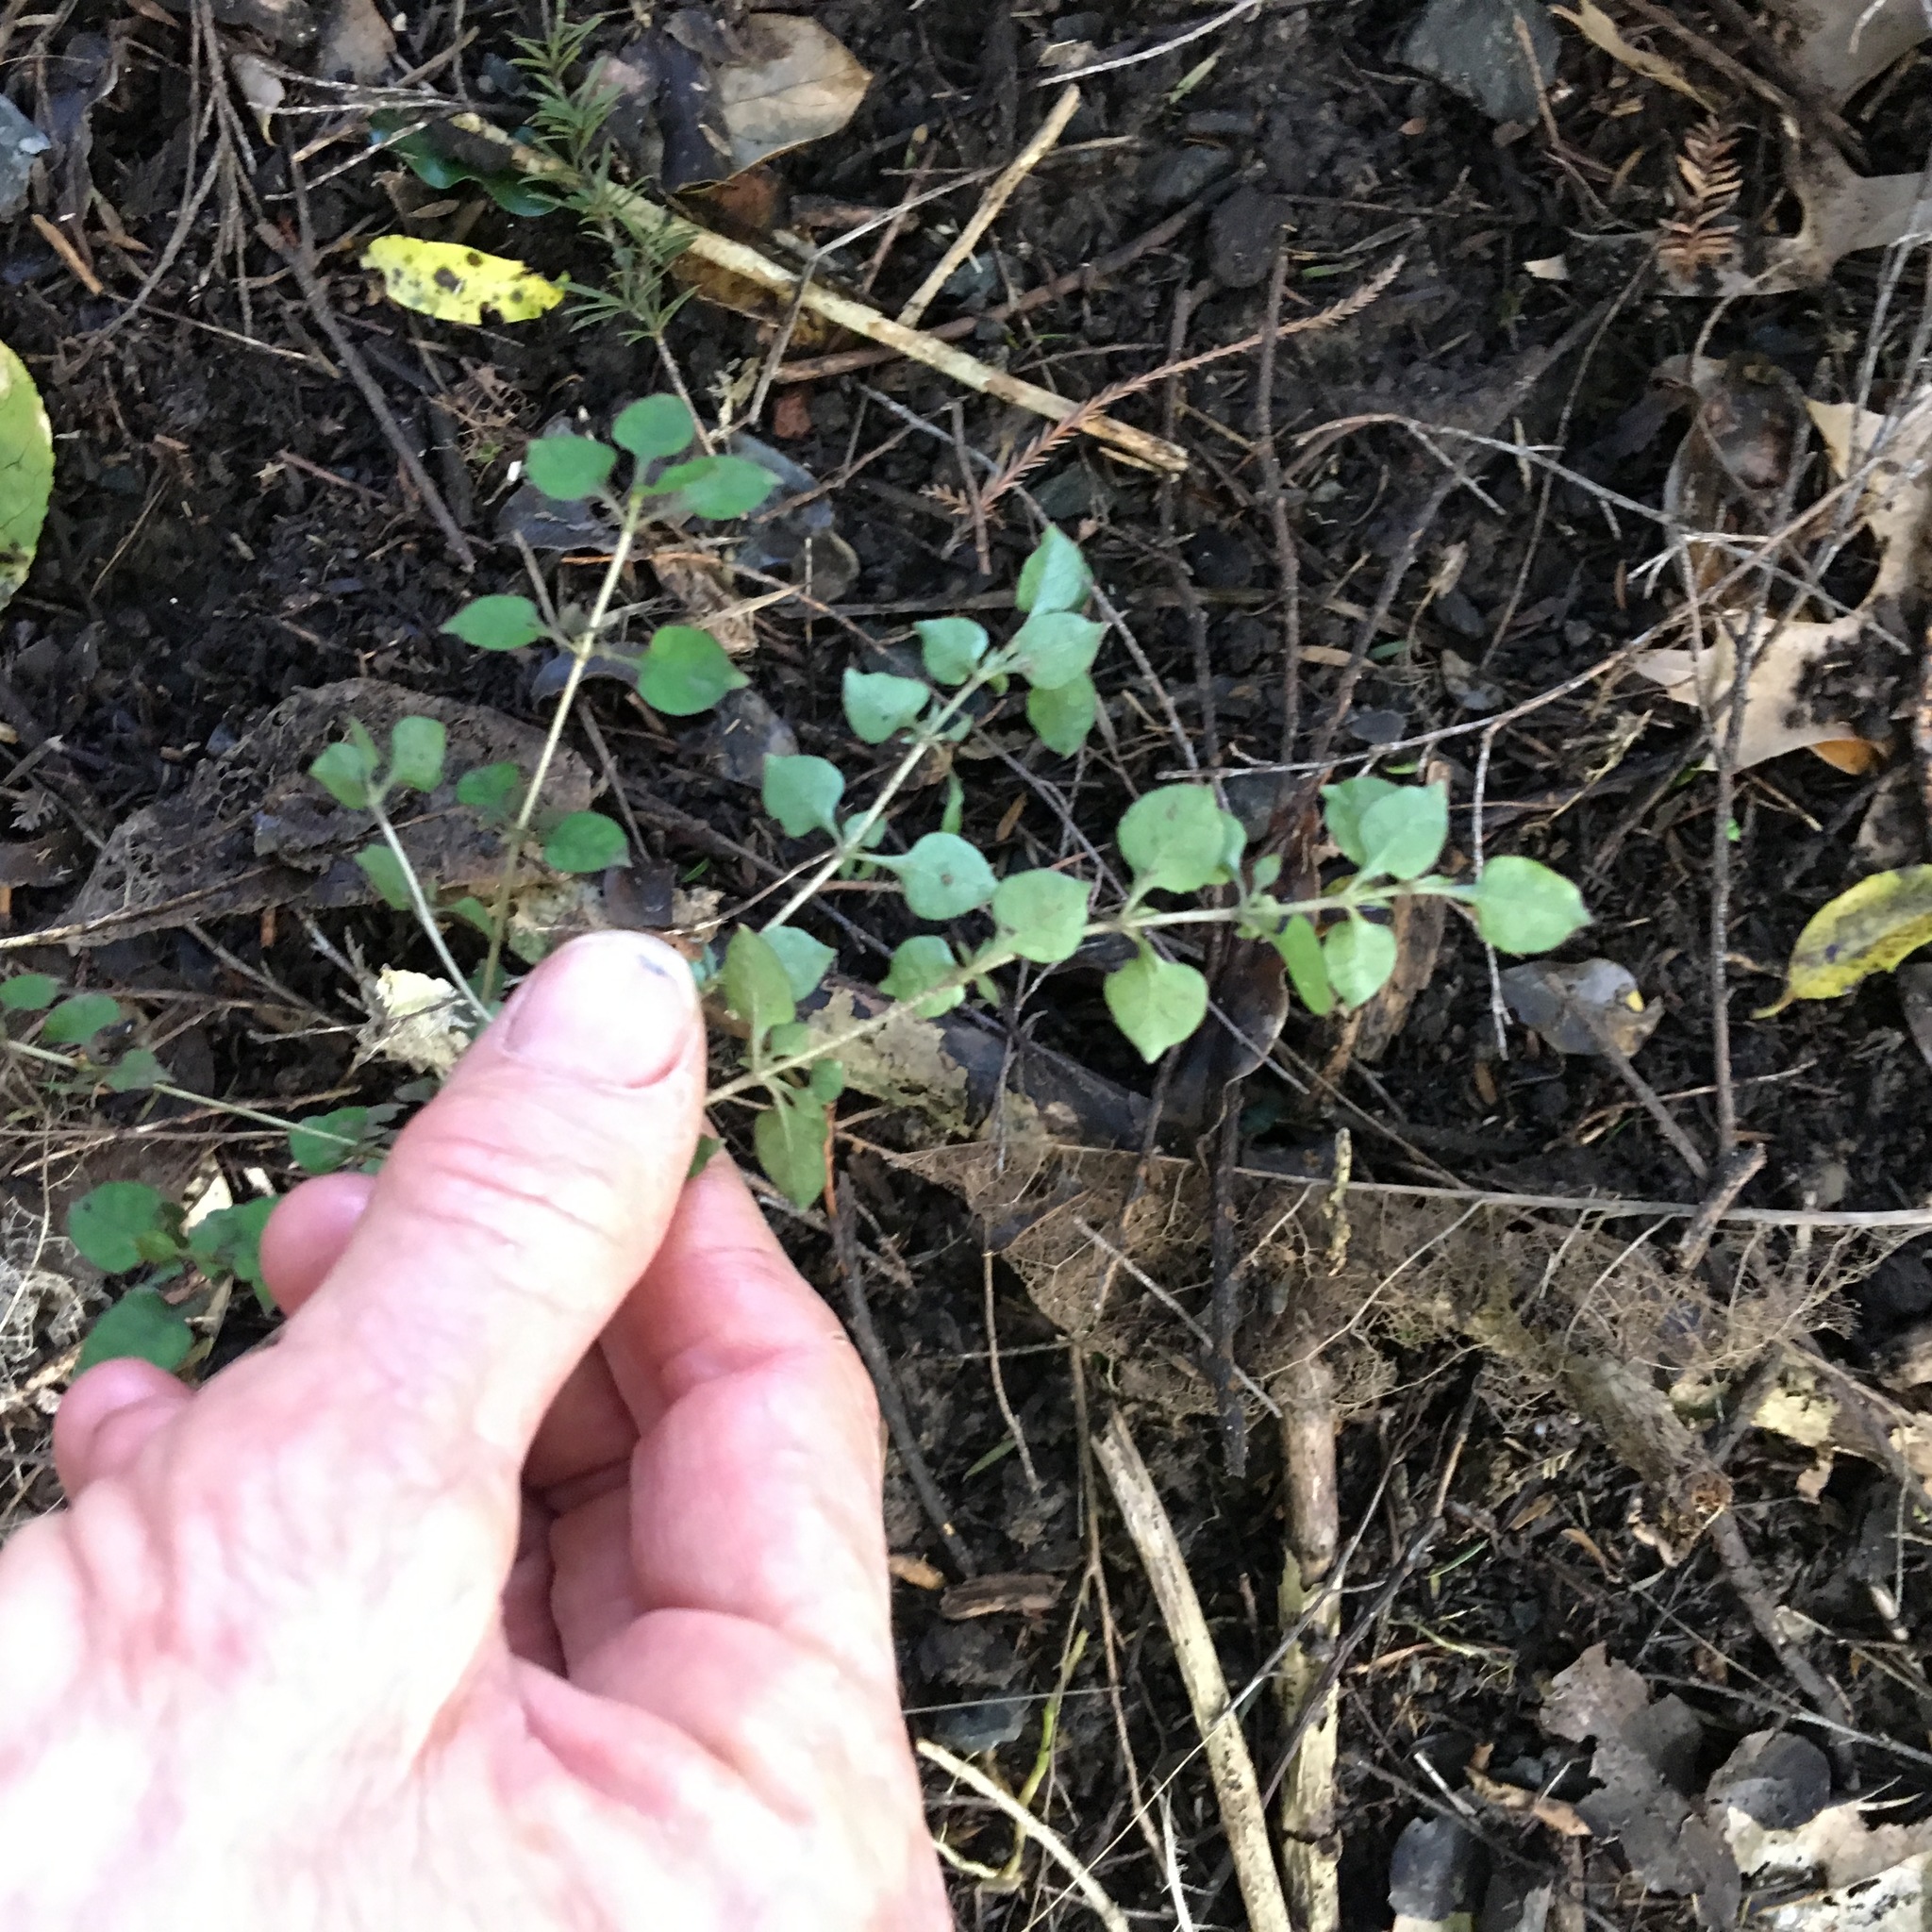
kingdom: Plantae
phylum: Tracheophyta
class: Magnoliopsida
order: Gentianales
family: Rubiaceae
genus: Coprosma
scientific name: Coprosma areolata
